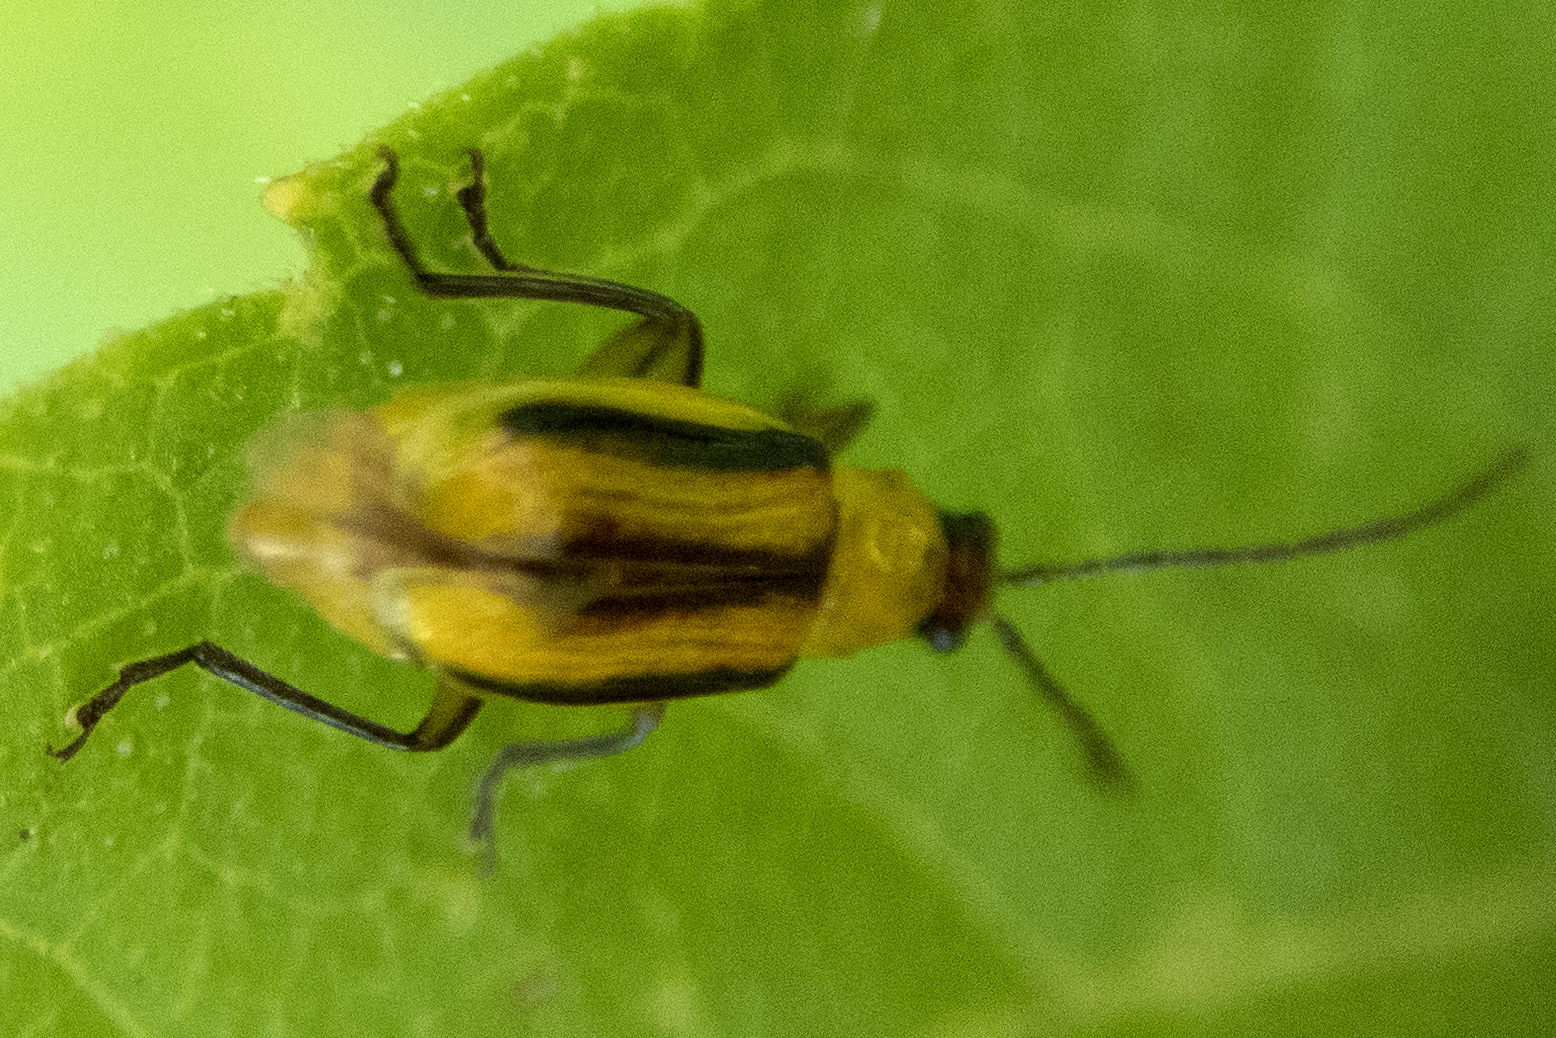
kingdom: Animalia
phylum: Arthropoda
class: Insecta
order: Coleoptera
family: Chrysomelidae
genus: Diabrotica
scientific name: Diabrotica virgifera
